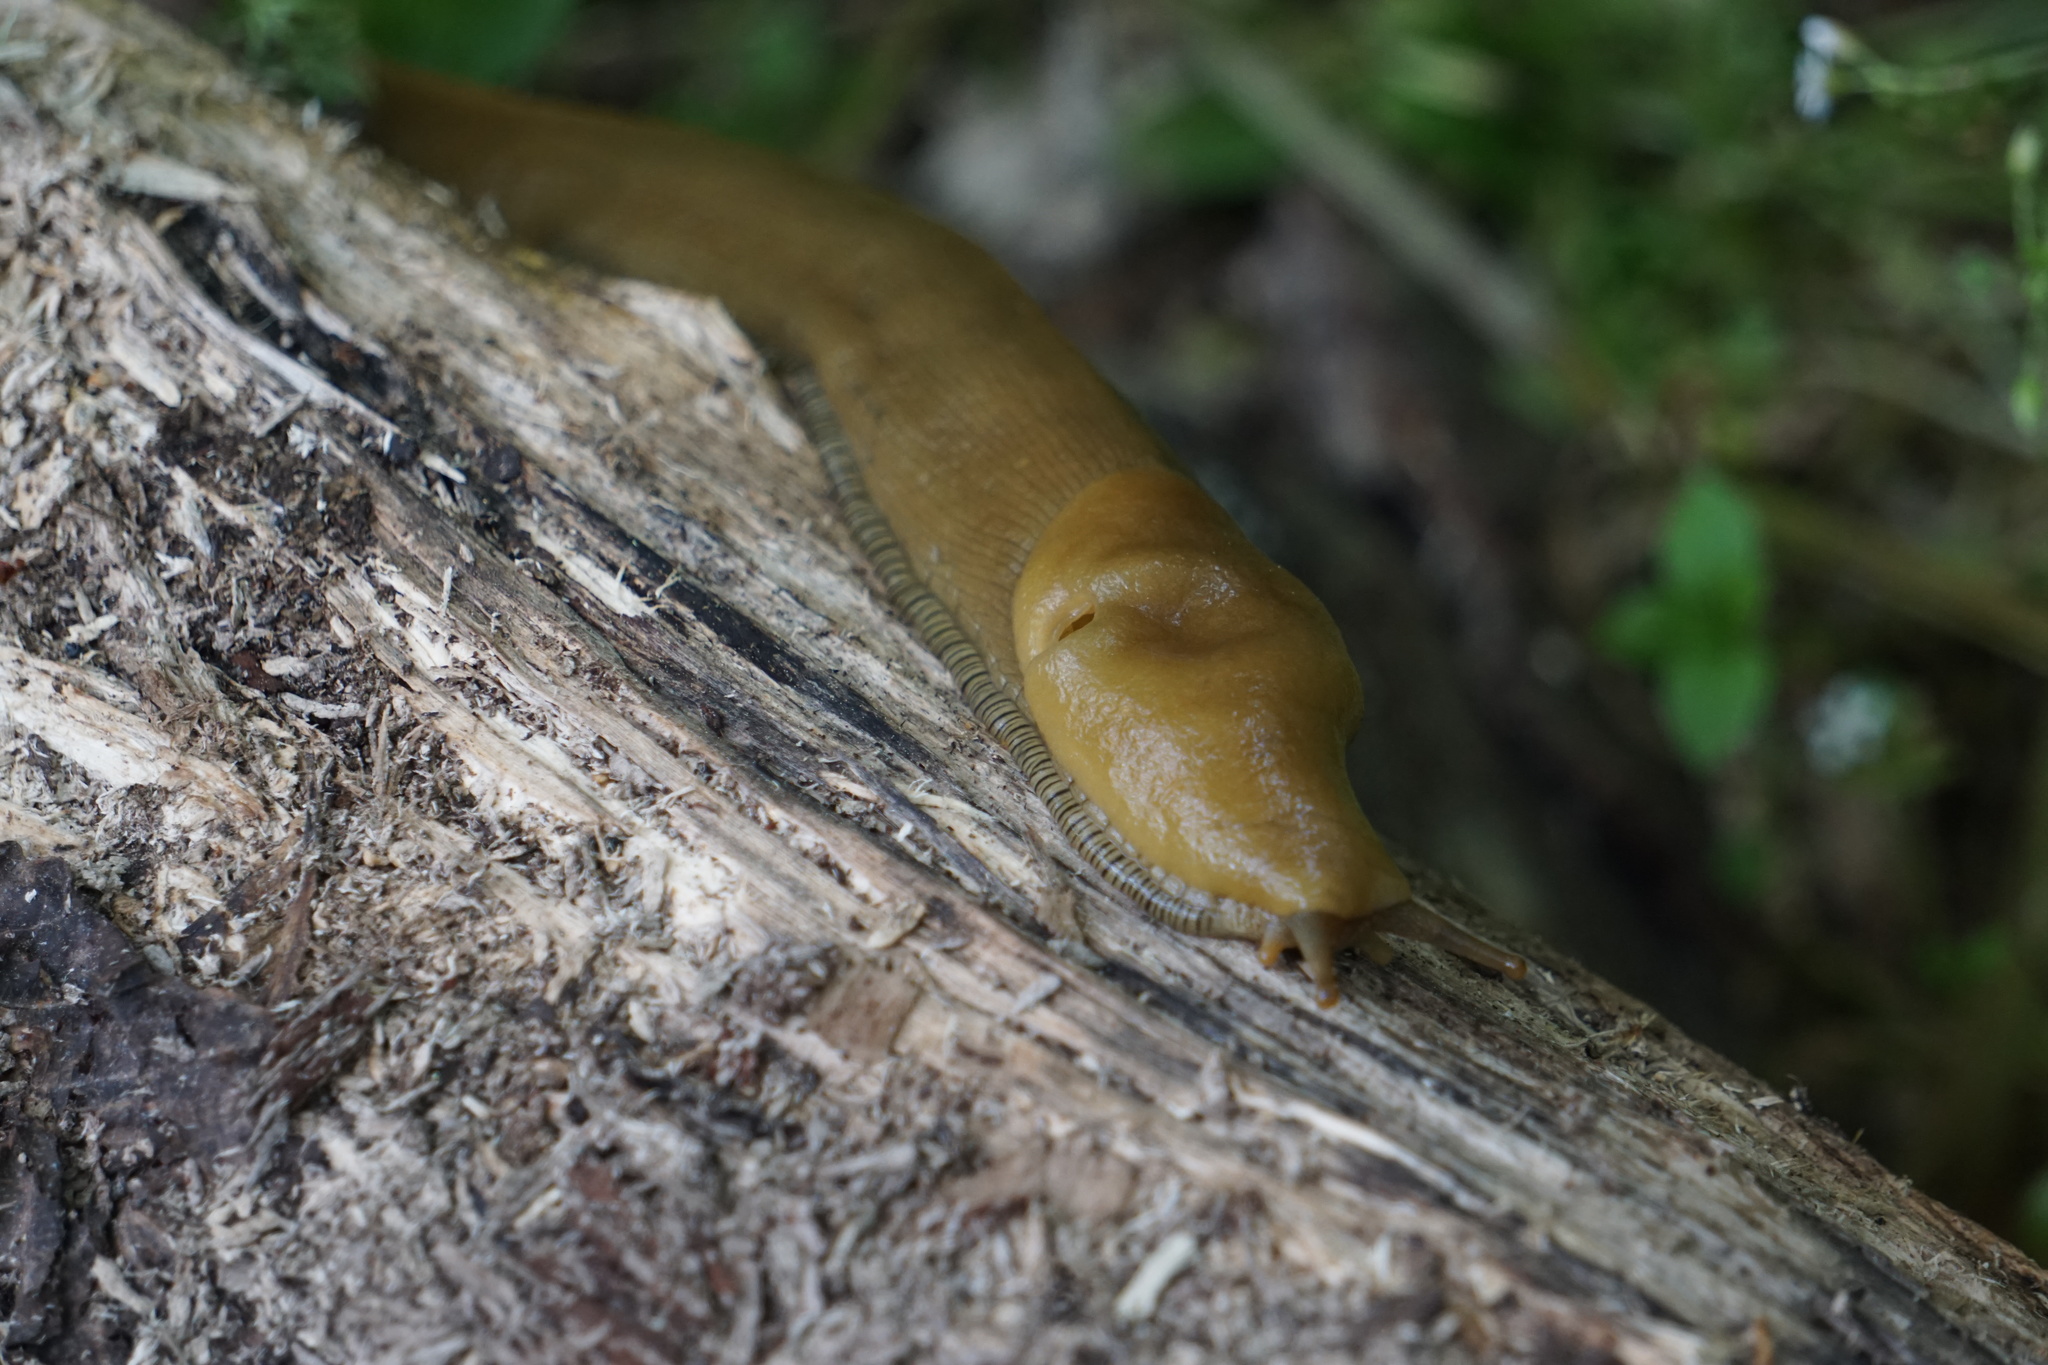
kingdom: Animalia
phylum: Mollusca
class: Gastropoda
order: Stylommatophora
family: Ariolimacidae
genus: Ariolimax
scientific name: Ariolimax buttoni
